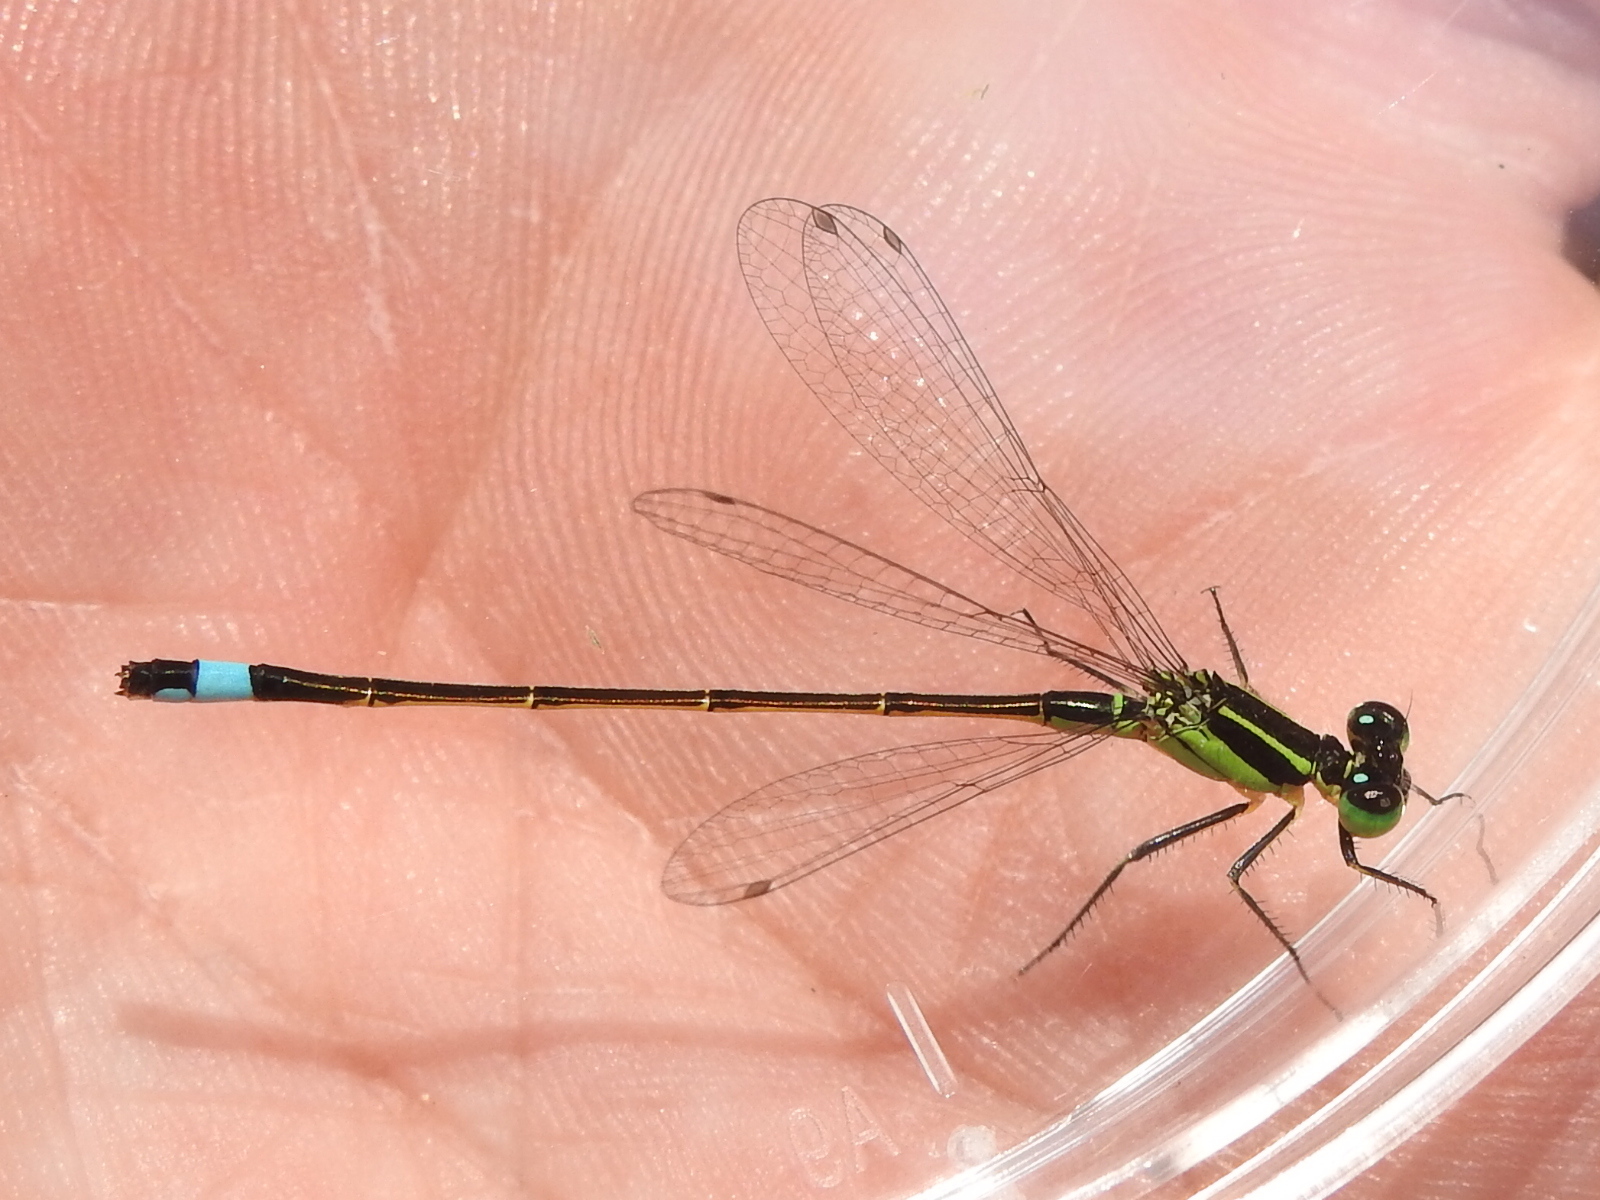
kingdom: Animalia
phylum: Arthropoda
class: Insecta
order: Odonata
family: Coenagrionidae
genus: Ischnura
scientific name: Ischnura ramburii
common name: Rambur's forktail
